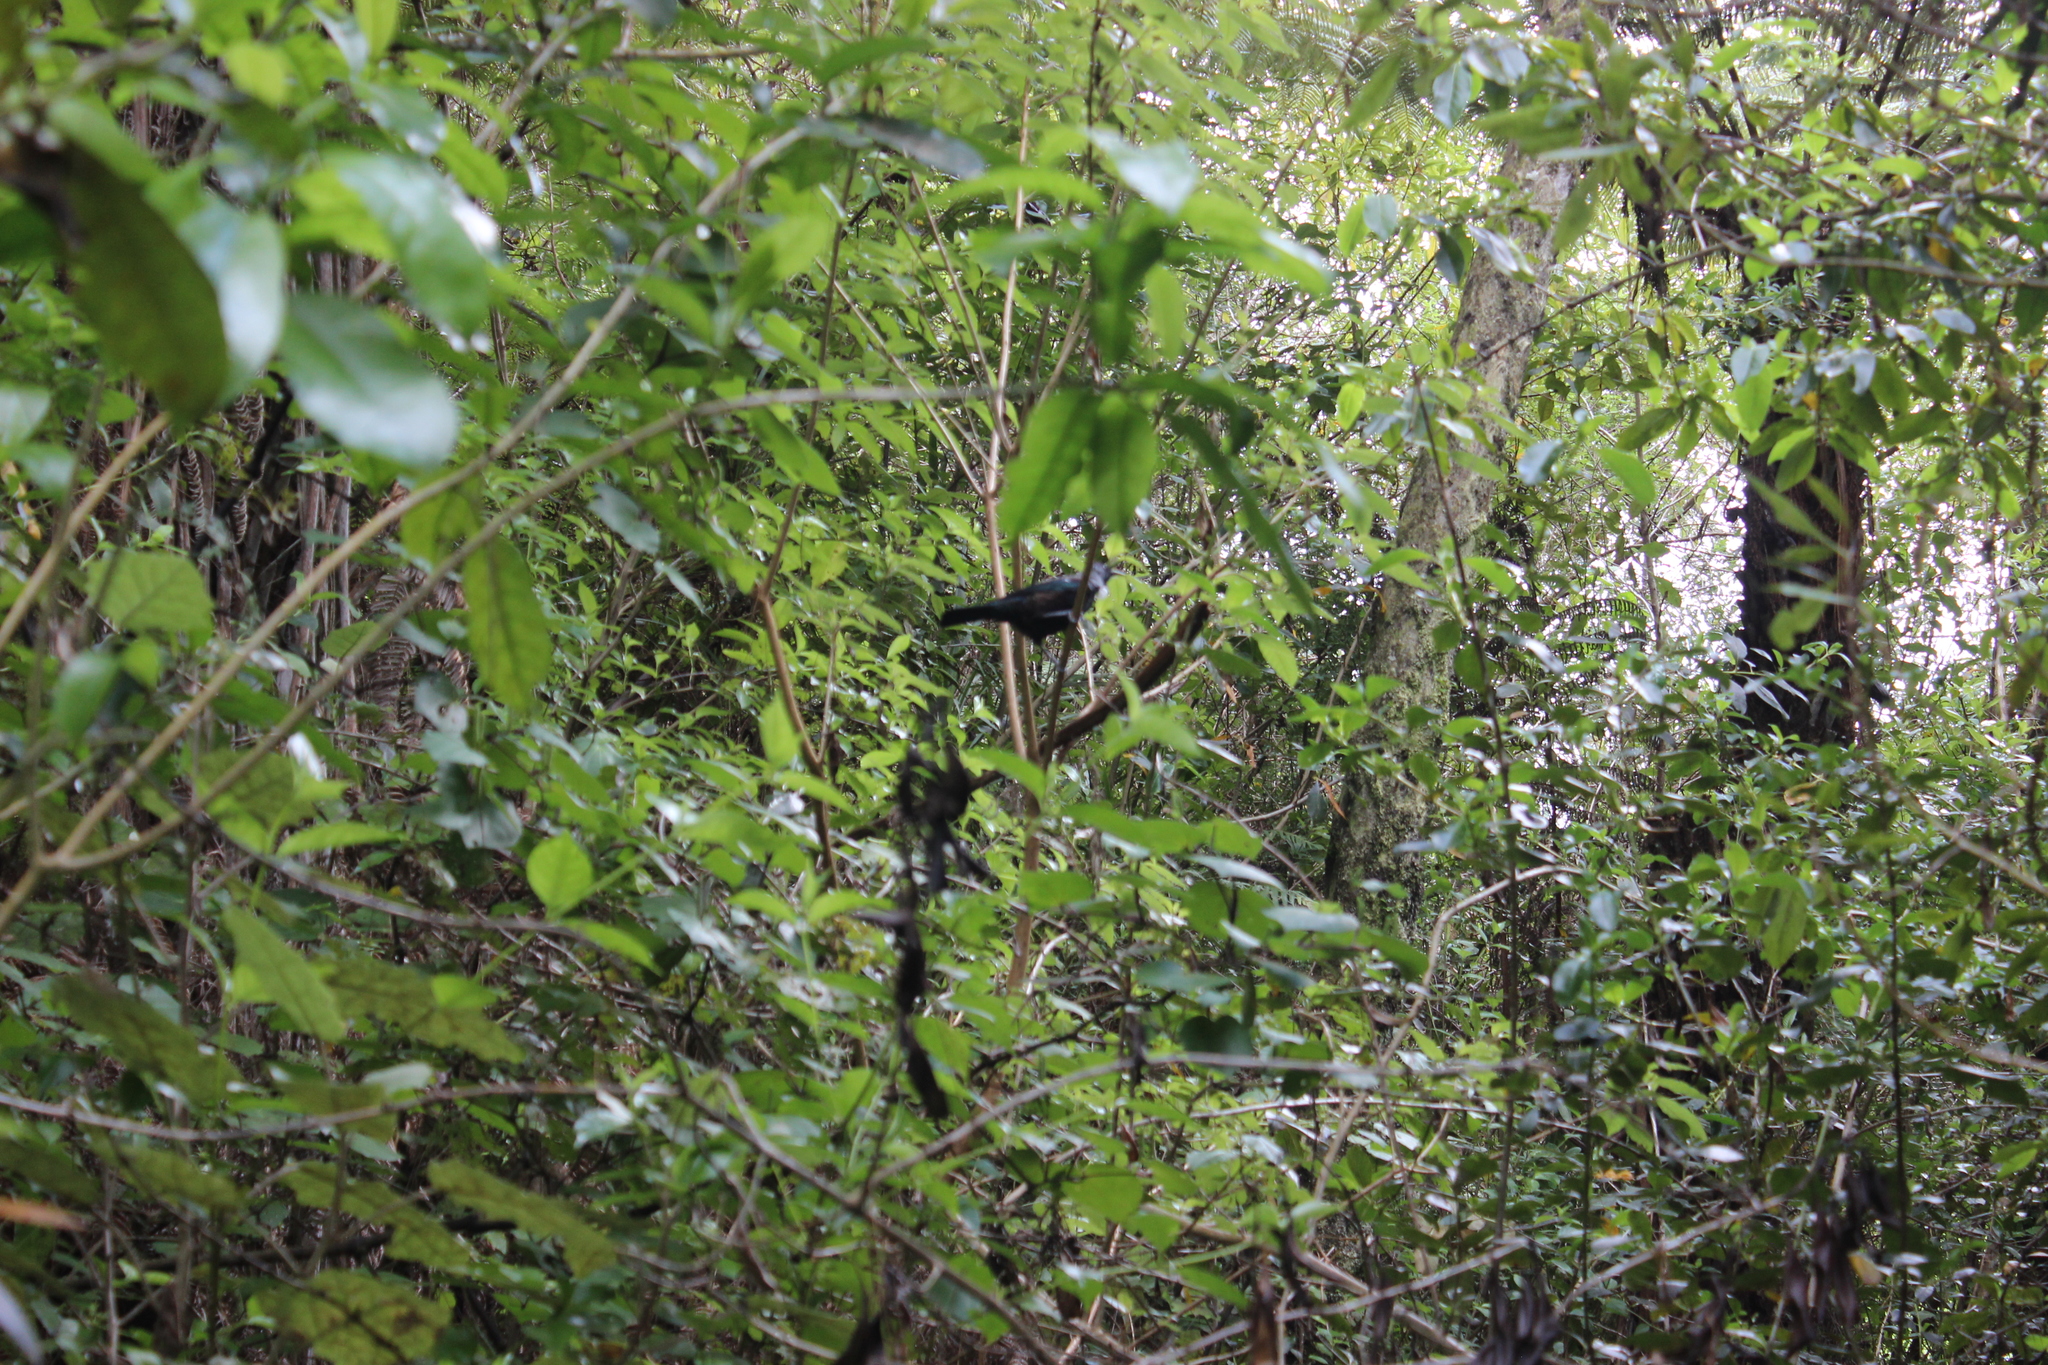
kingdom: Animalia
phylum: Chordata
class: Aves
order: Passeriformes
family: Meliphagidae
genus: Prosthemadera
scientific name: Prosthemadera novaeseelandiae
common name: Tui
